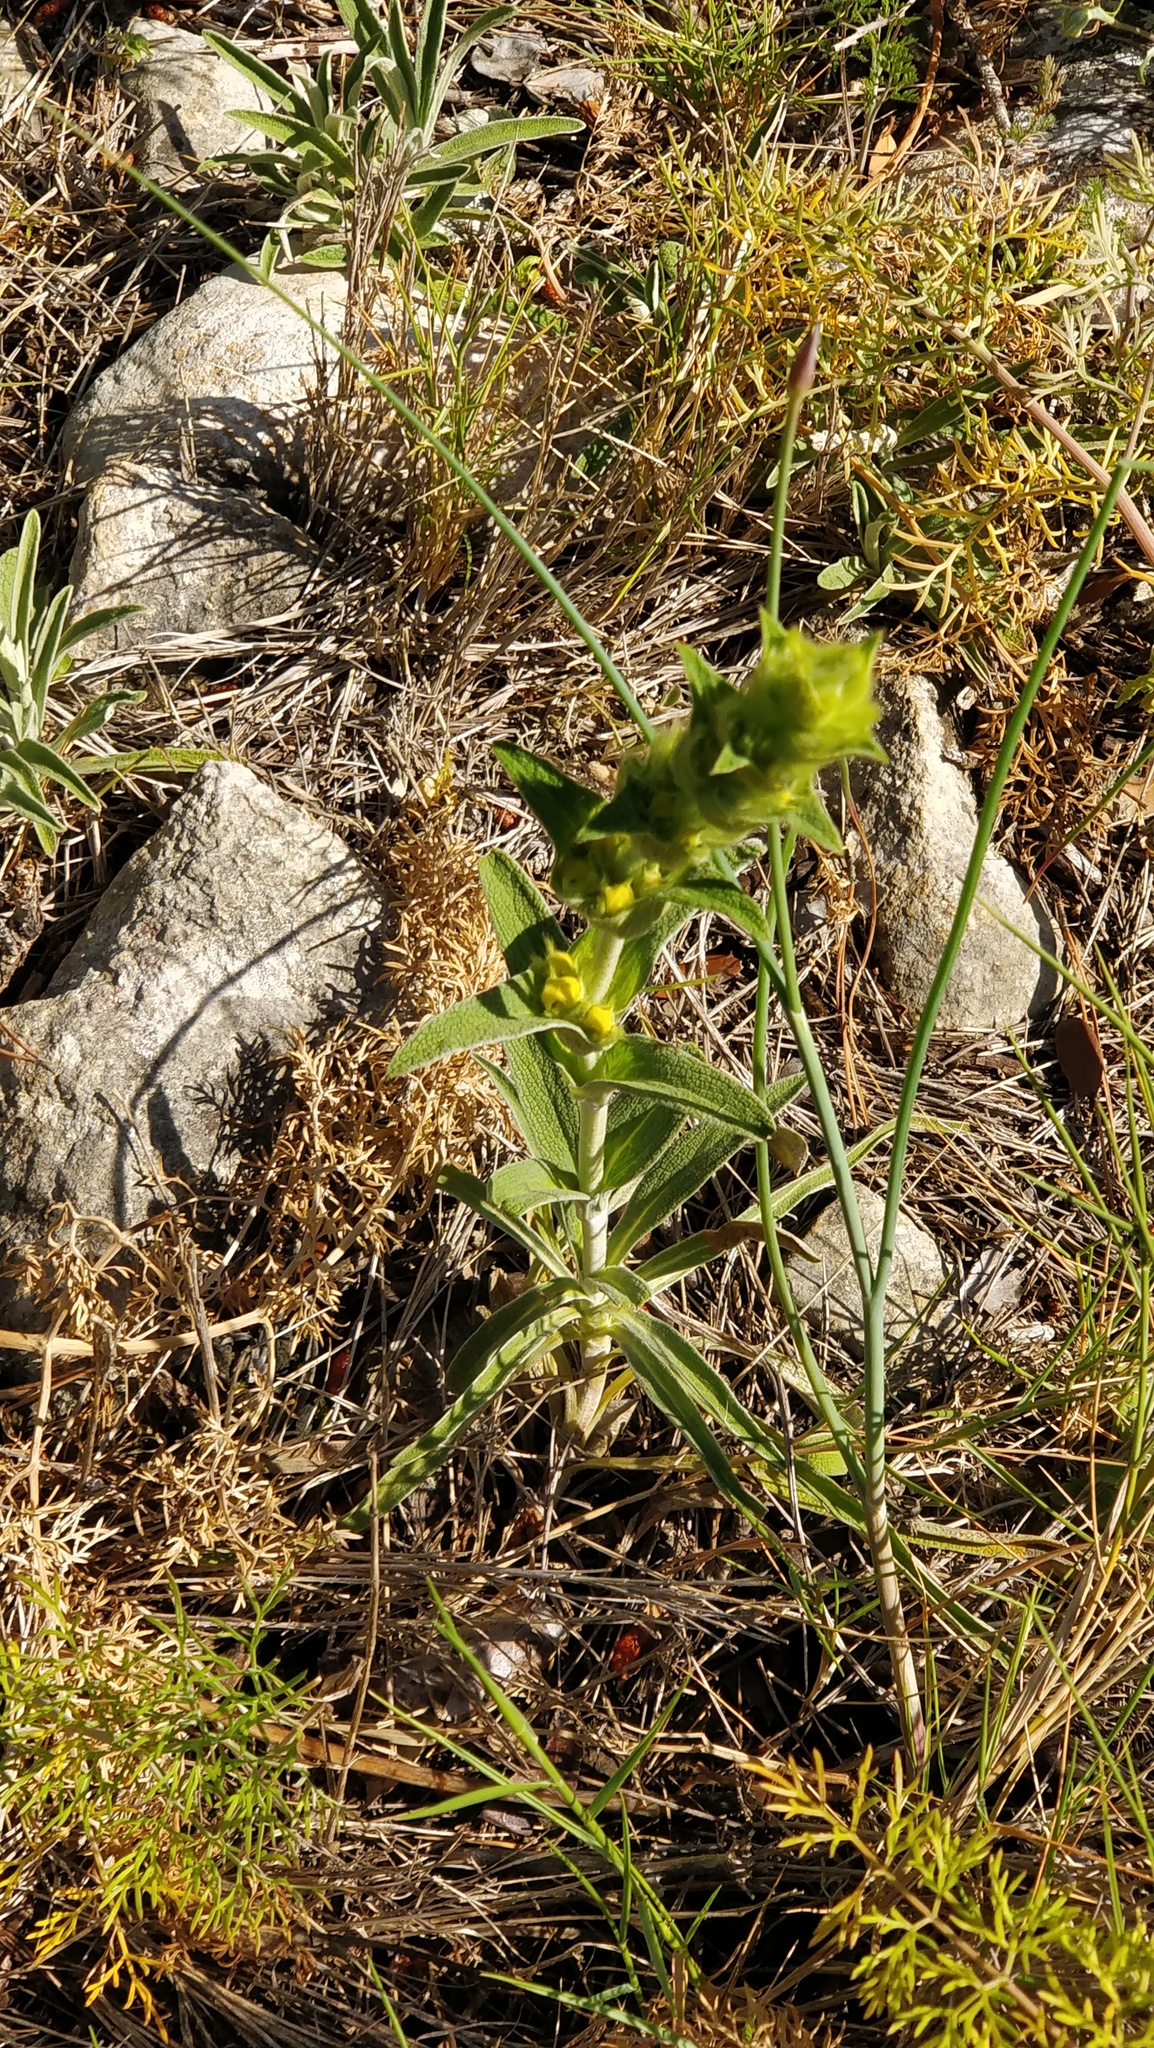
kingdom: Plantae
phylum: Tracheophyta
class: Magnoliopsida
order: Lamiales
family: Lamiaceae
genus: Phlomis
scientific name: Phlomis lychnitis
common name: Lampwickplant
